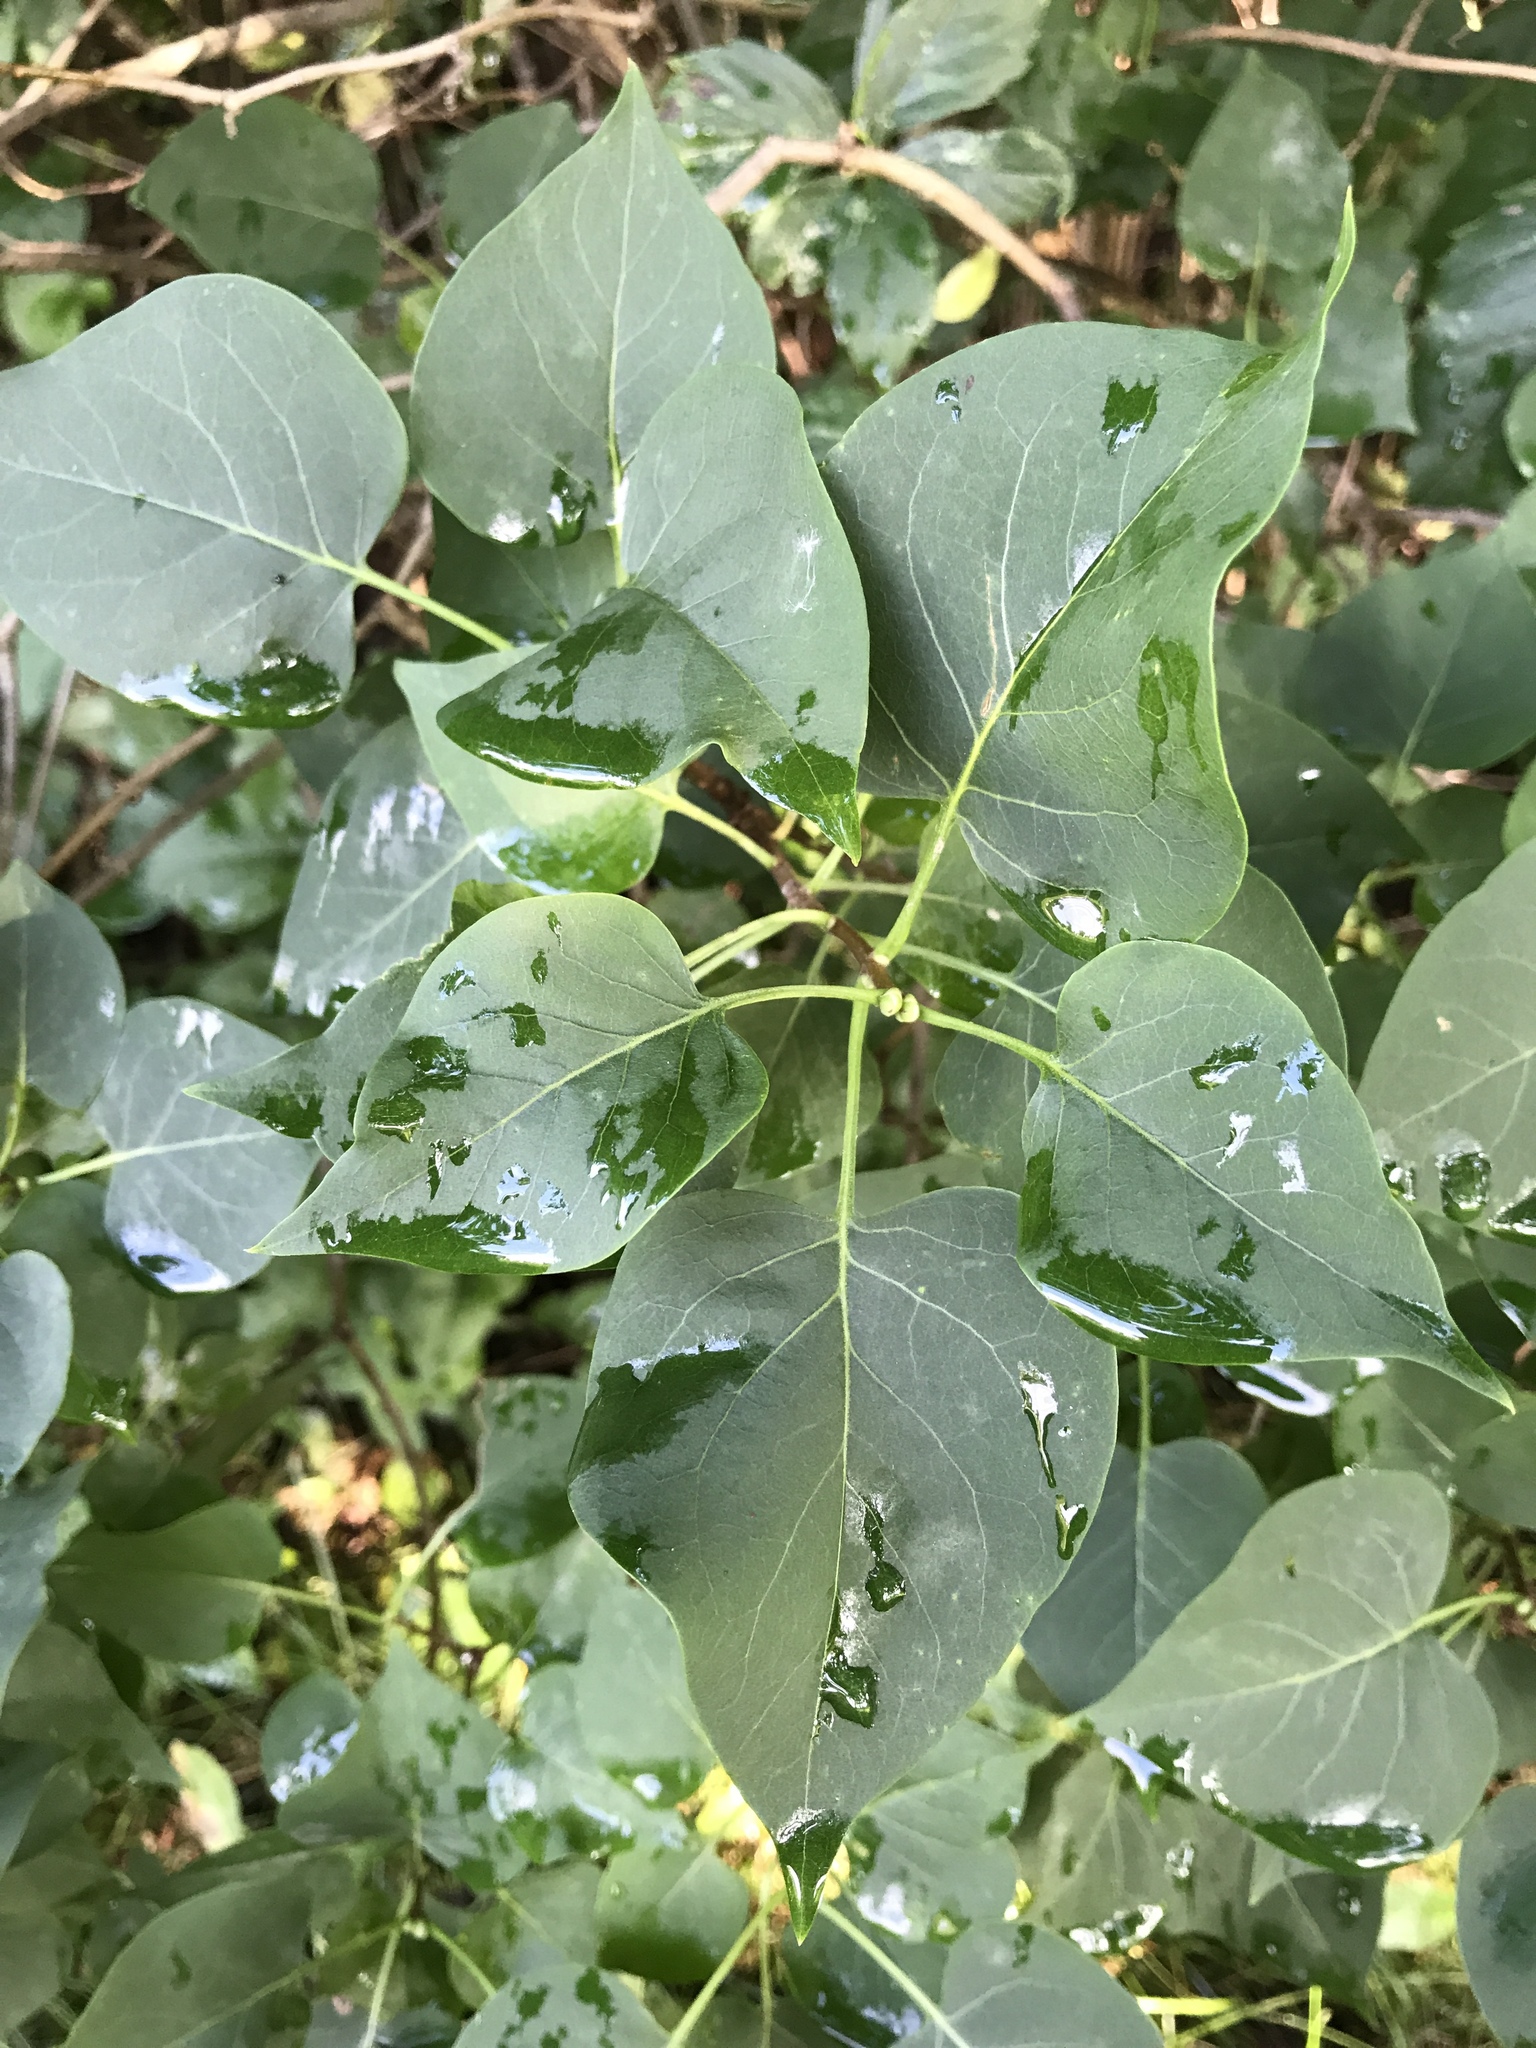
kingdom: Plantae
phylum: Tracheophyta
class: Magnoliopsida
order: Lamiales
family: Oleaceae
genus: Syringa
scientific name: Syringa vulgaris
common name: Common lilac
